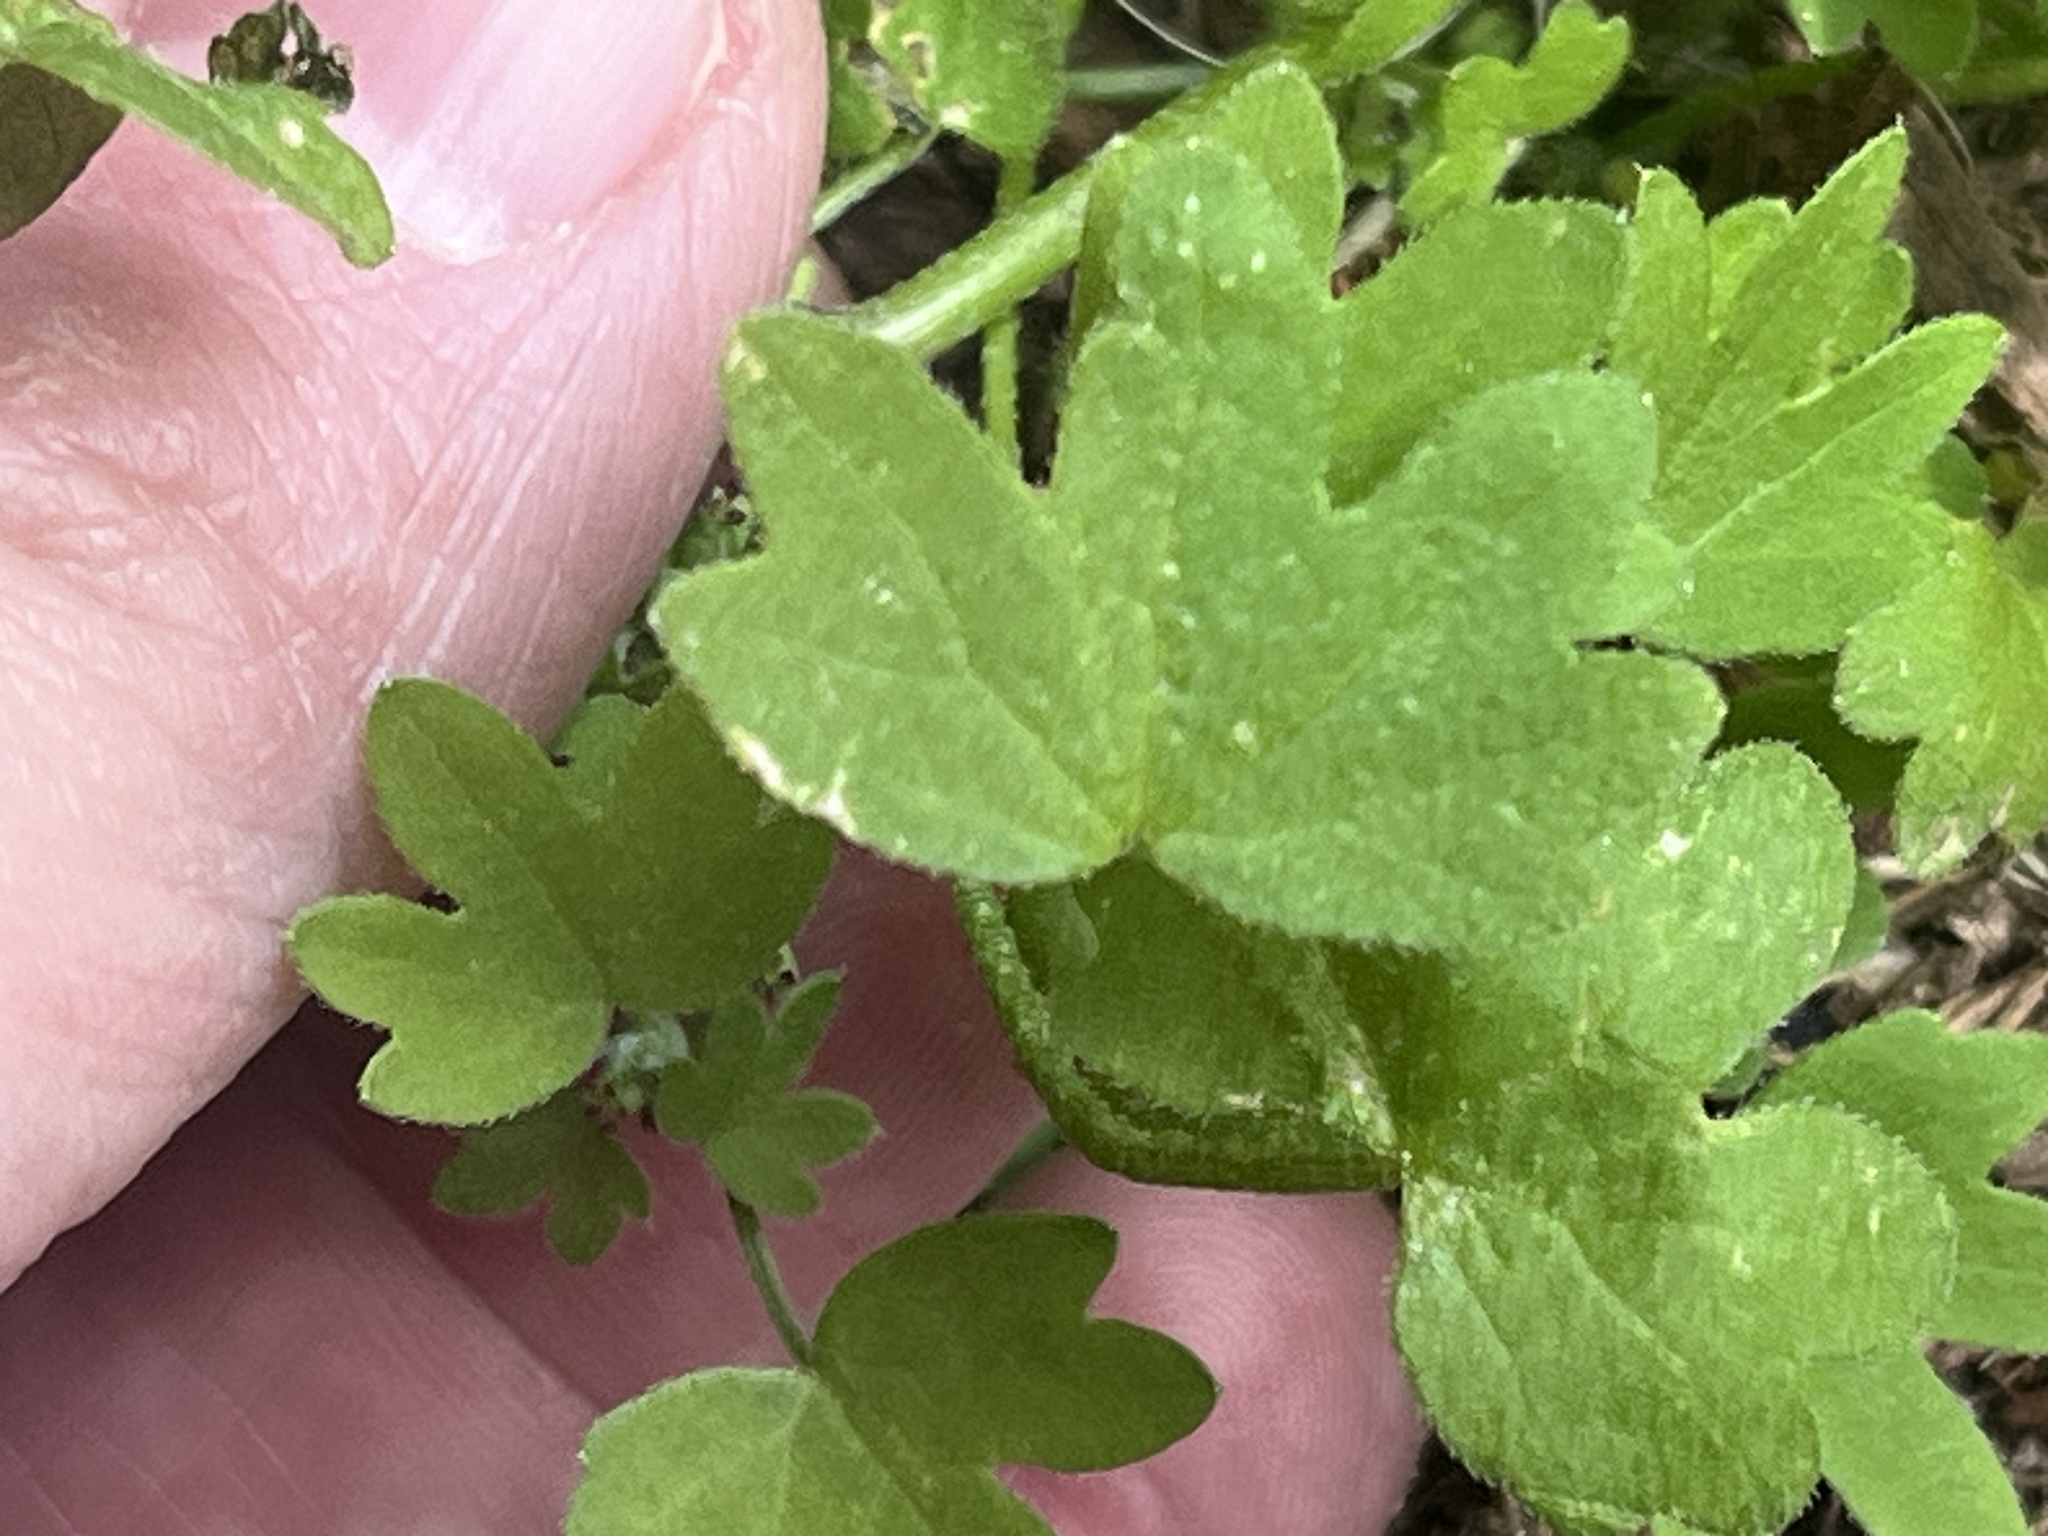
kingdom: Plantae
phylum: Tracheophyta
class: Magnoliopsida
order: Apiales
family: Apiaceae
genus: Bowlesia
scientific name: Bowlesia incana
